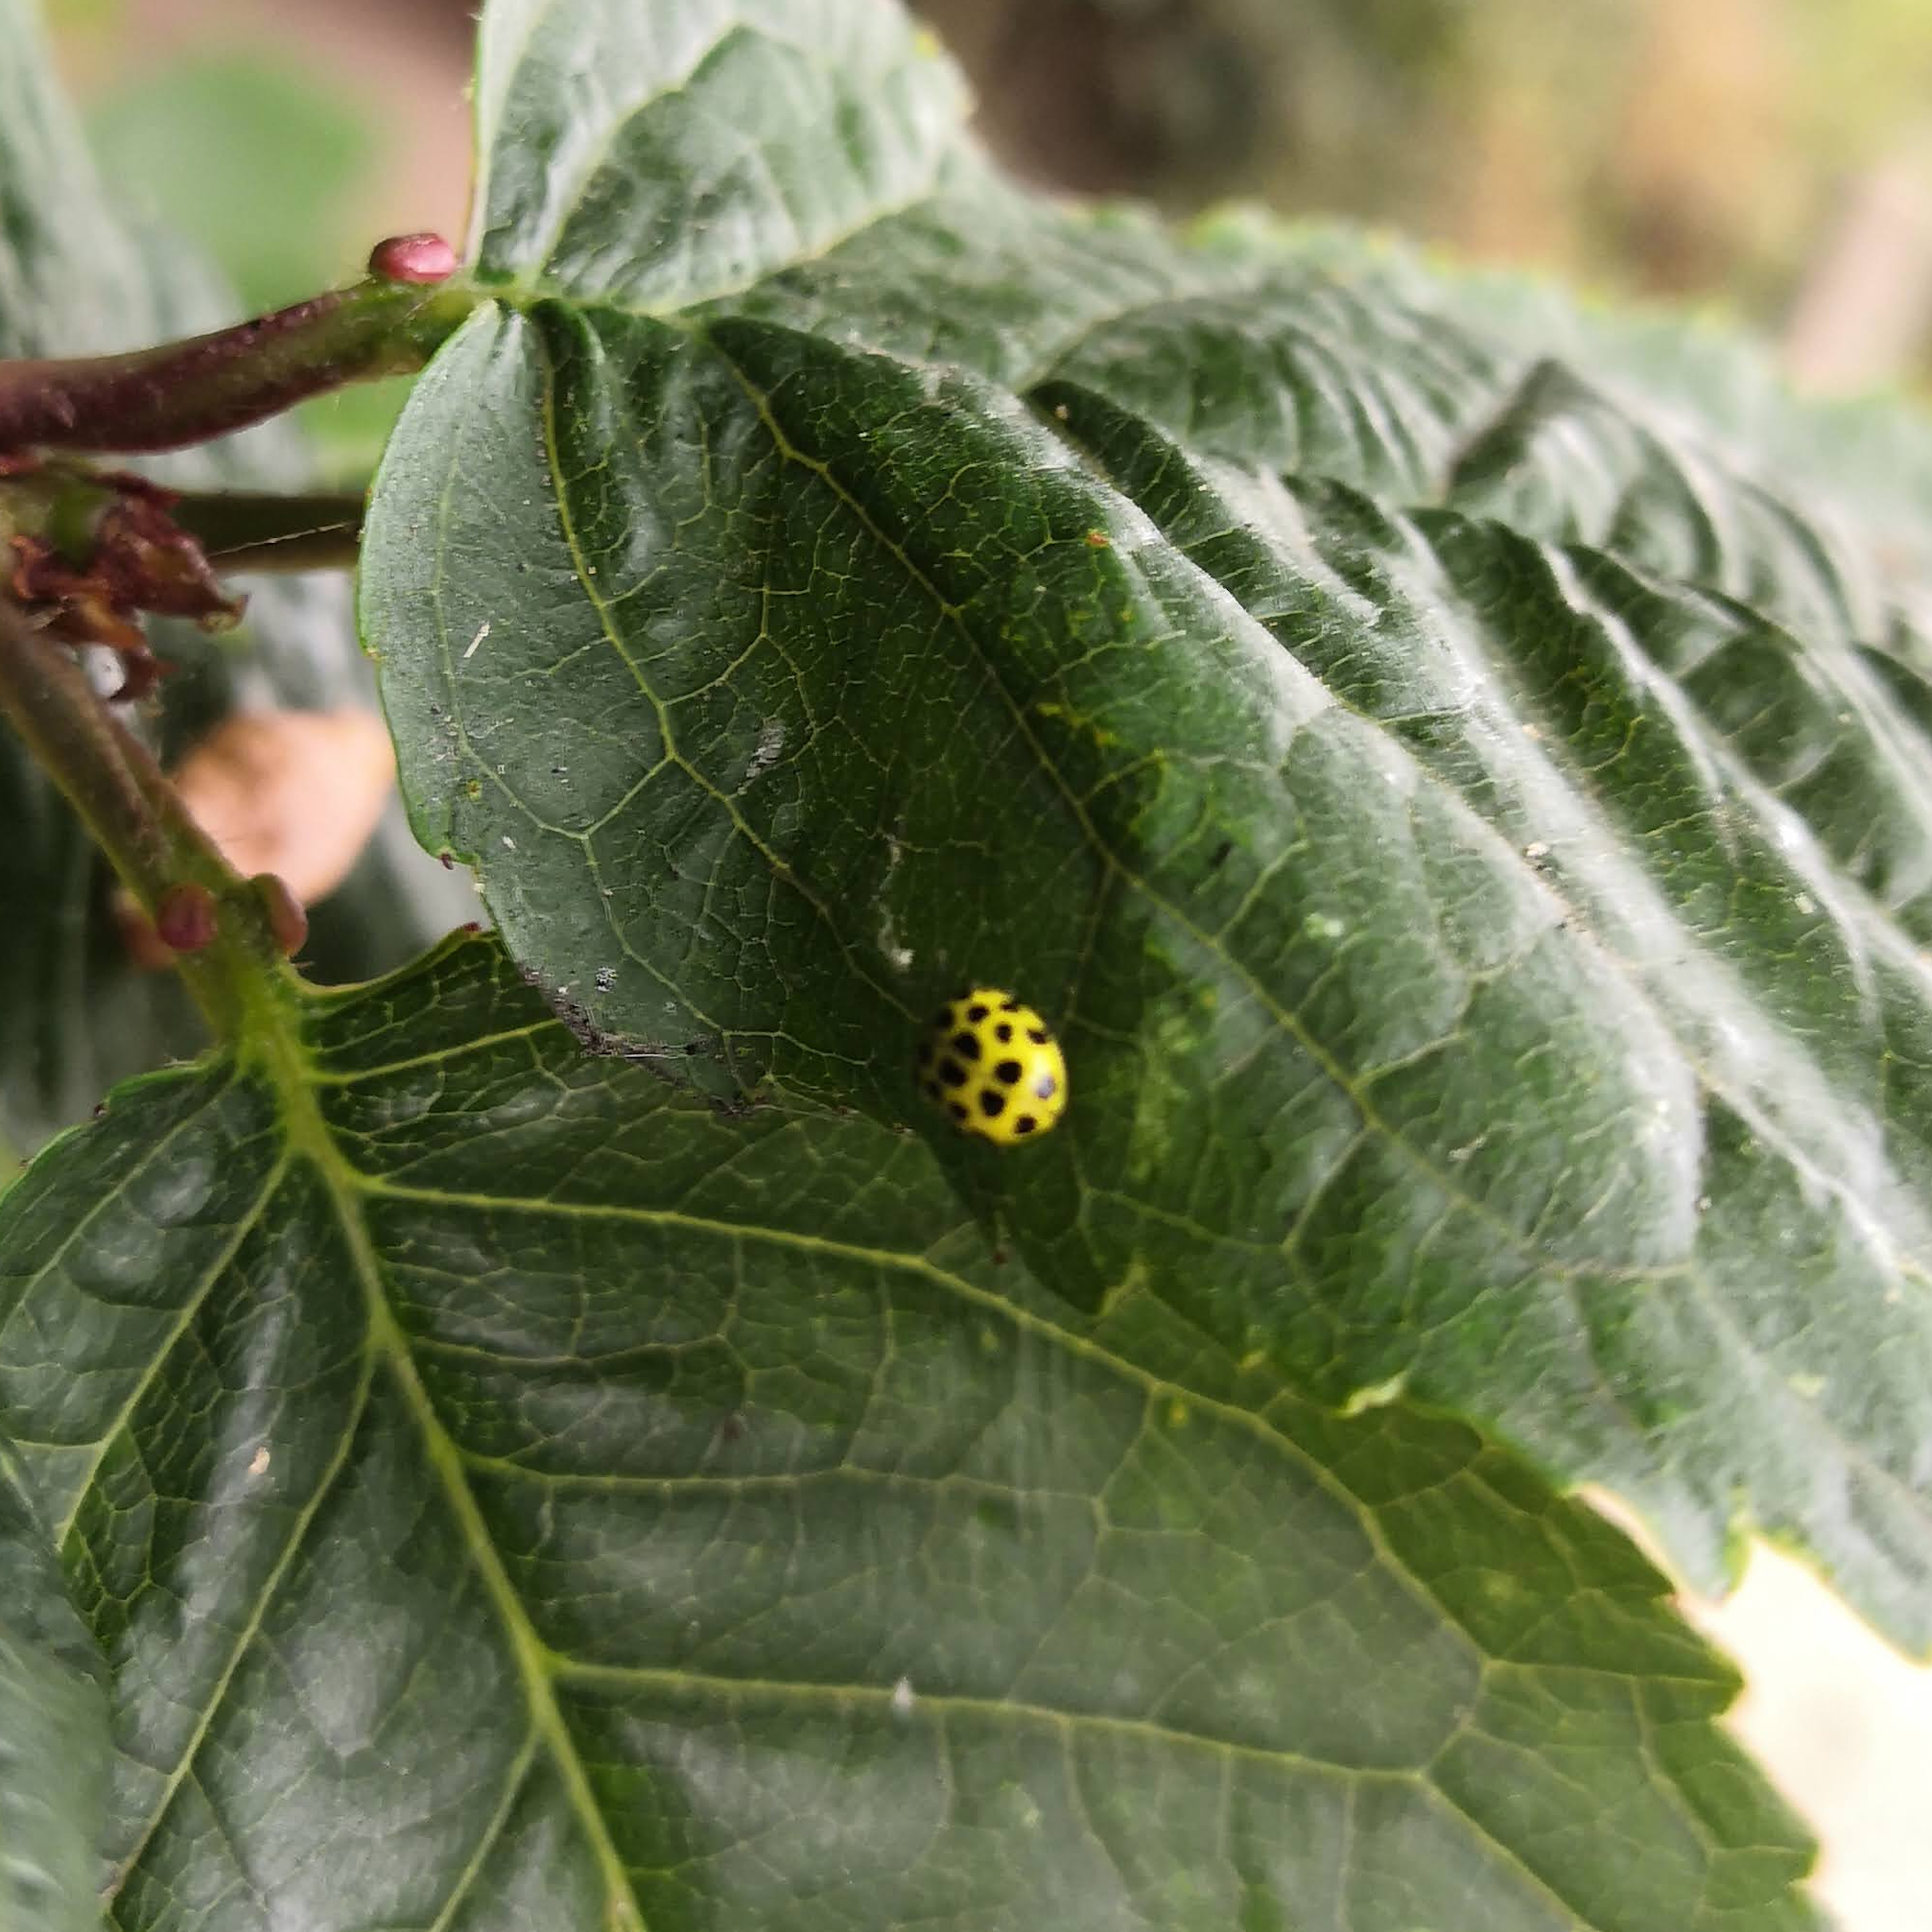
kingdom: Animalia
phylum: Arthropoda
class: Insecta
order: Coleoptera
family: Coccinellidae
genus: Psyllobora
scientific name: Psyllobora vigintiduopunctata
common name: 22-spot ladybird
